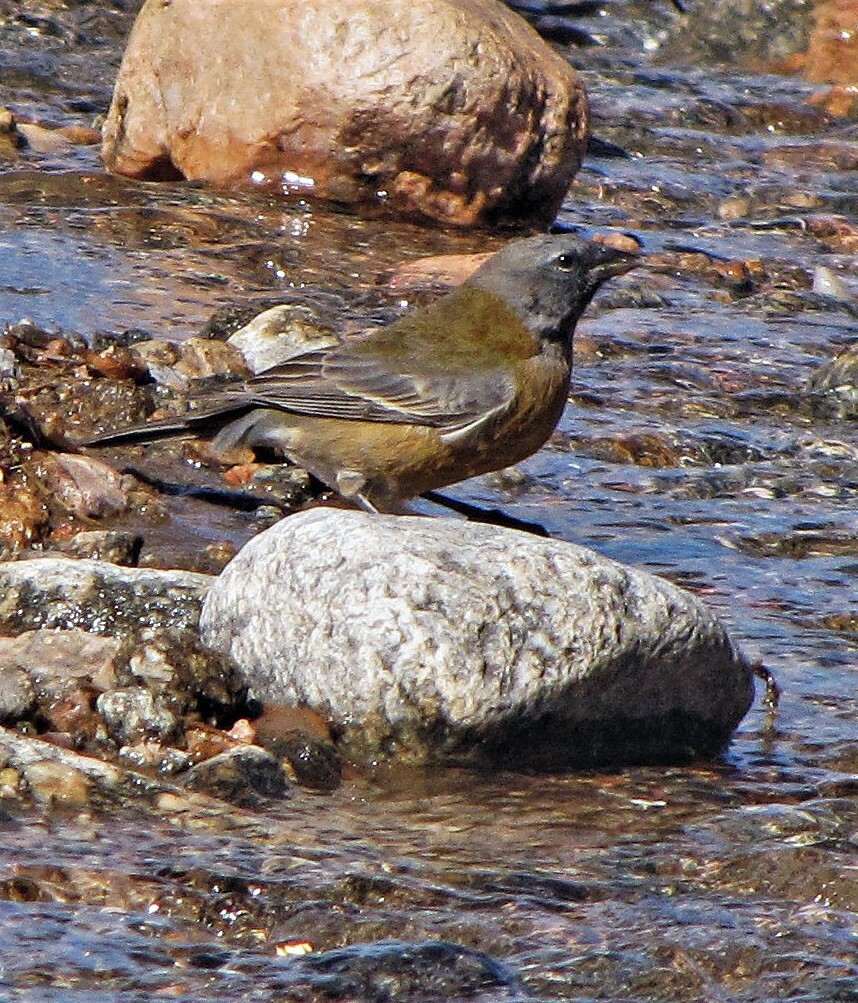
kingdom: Animalia
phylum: Chordata
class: Aves
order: Passeriformes
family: Thraupidae
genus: Phrygilus
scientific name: Phrygilus gayi
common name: Grey-hooded sierra finch
